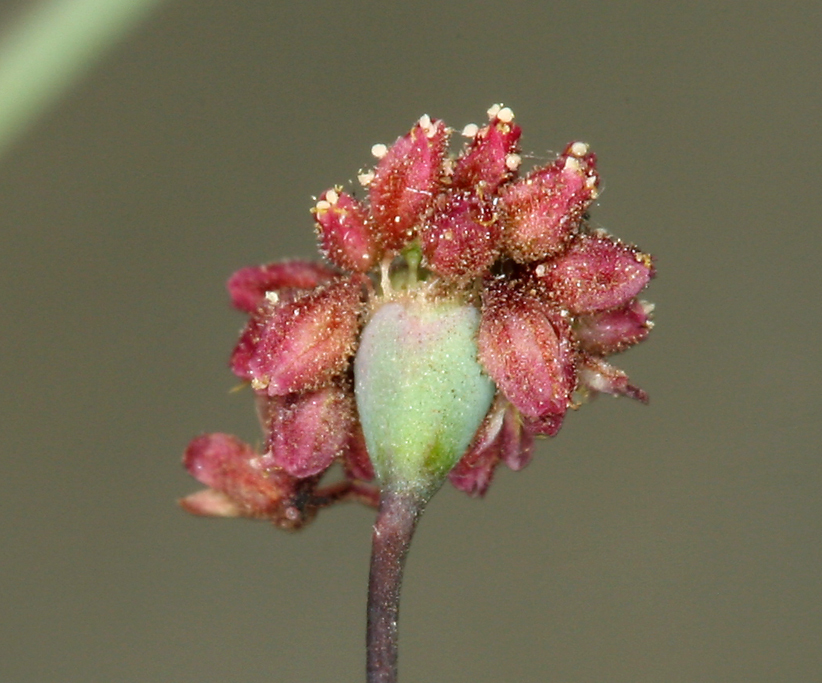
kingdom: Plantae
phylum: Tracheophyta
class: Magnoliopsida
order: Caryophyllales
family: Polygonaceae
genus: Eriogonum
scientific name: Eriogonum reniforme
